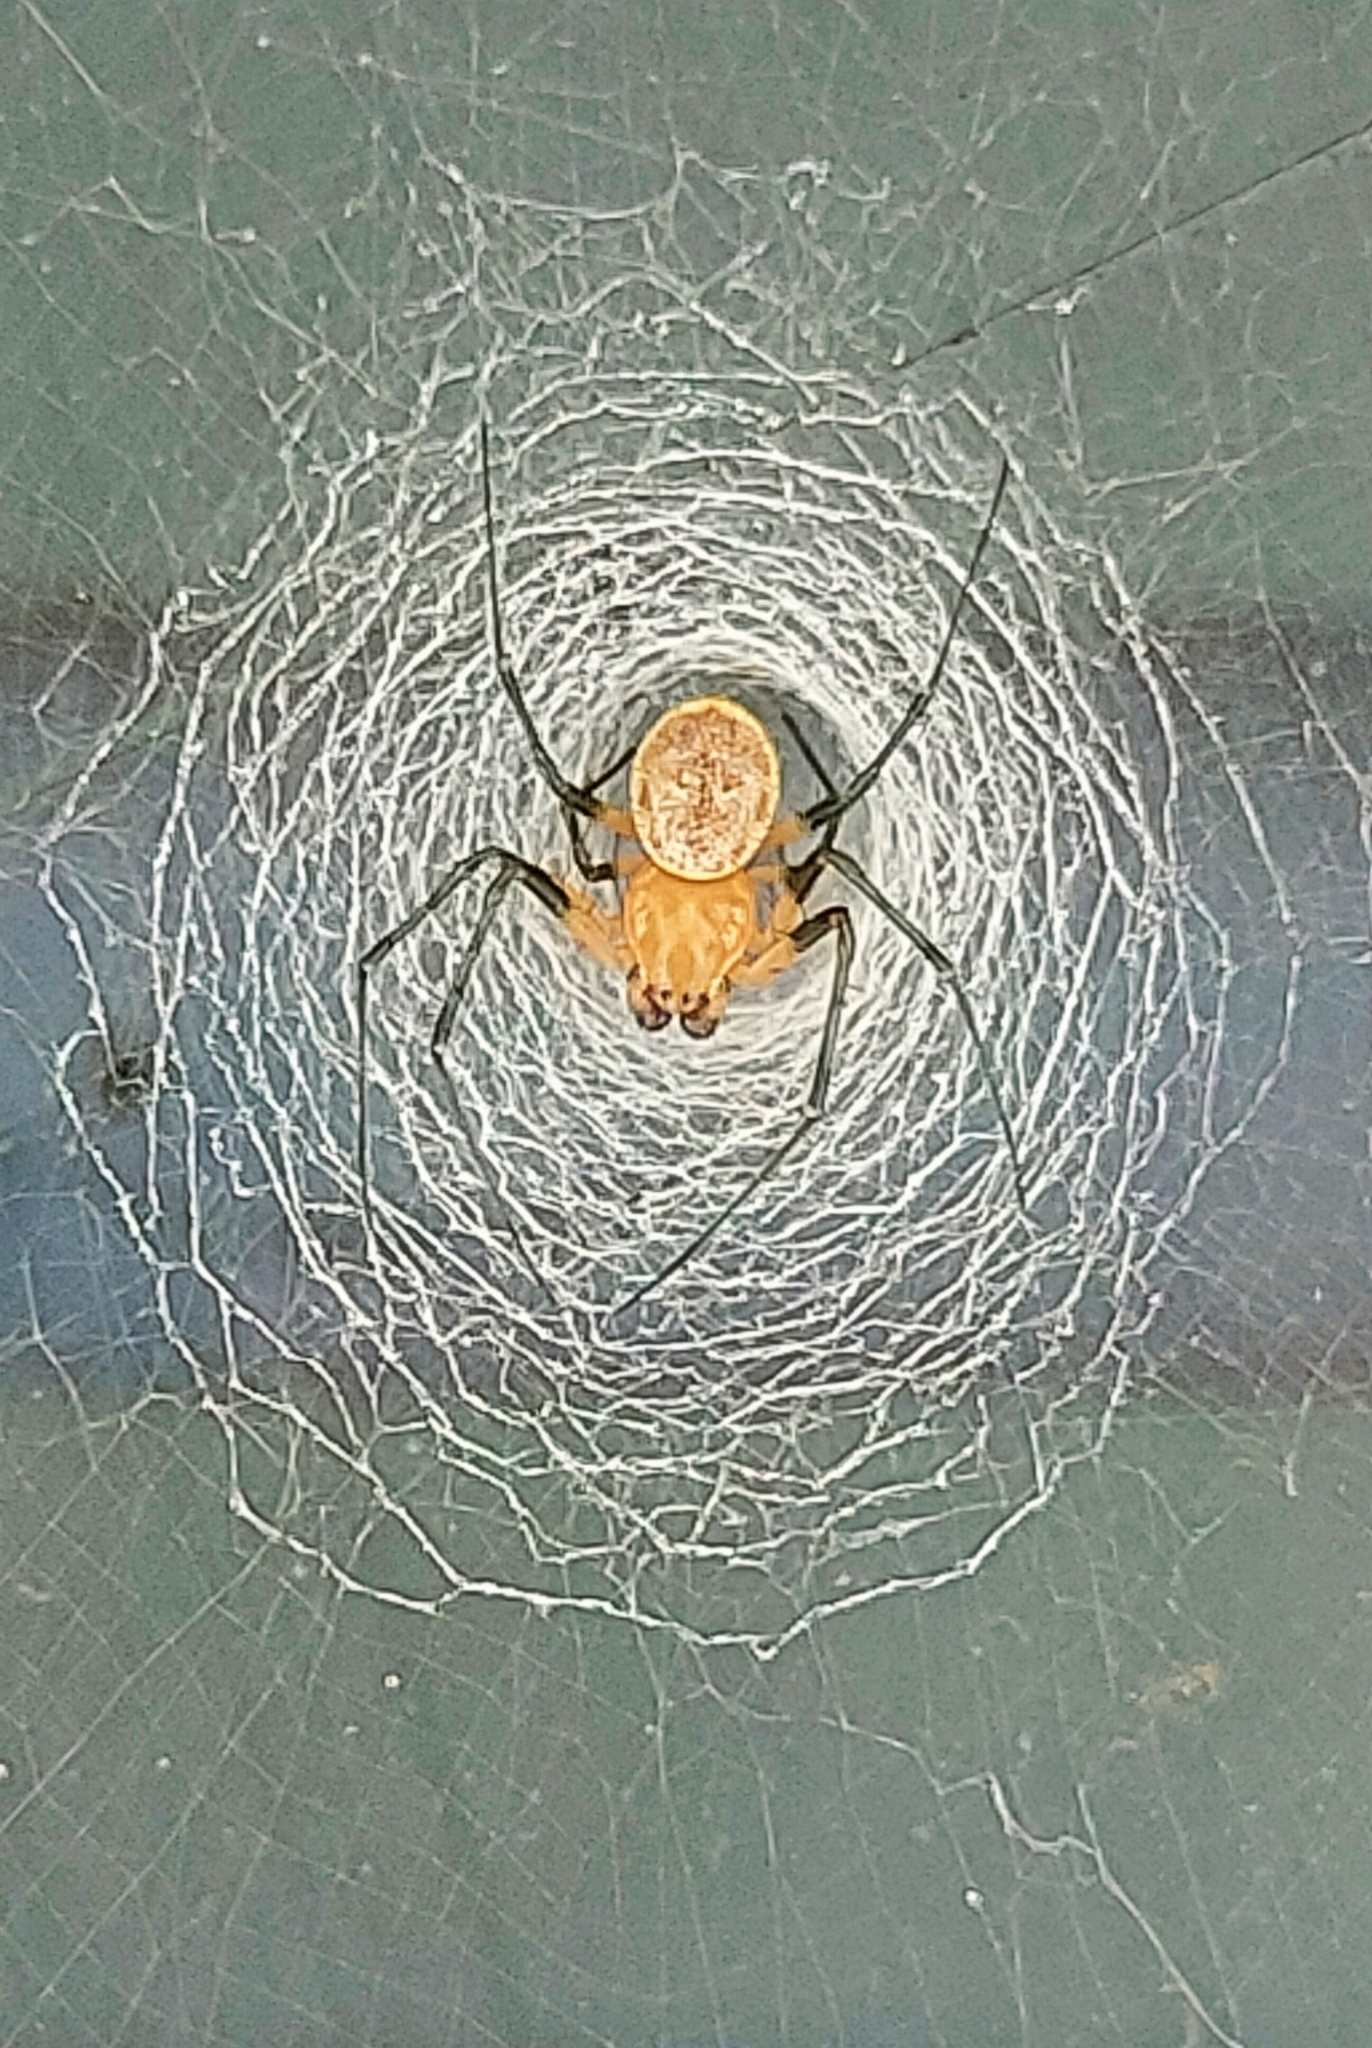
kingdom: Animalia
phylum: Arthropoda
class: Arachnida
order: Araneae
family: Araneidae
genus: Herennia
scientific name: Herennia multipuncta
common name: Spotted coin spider
